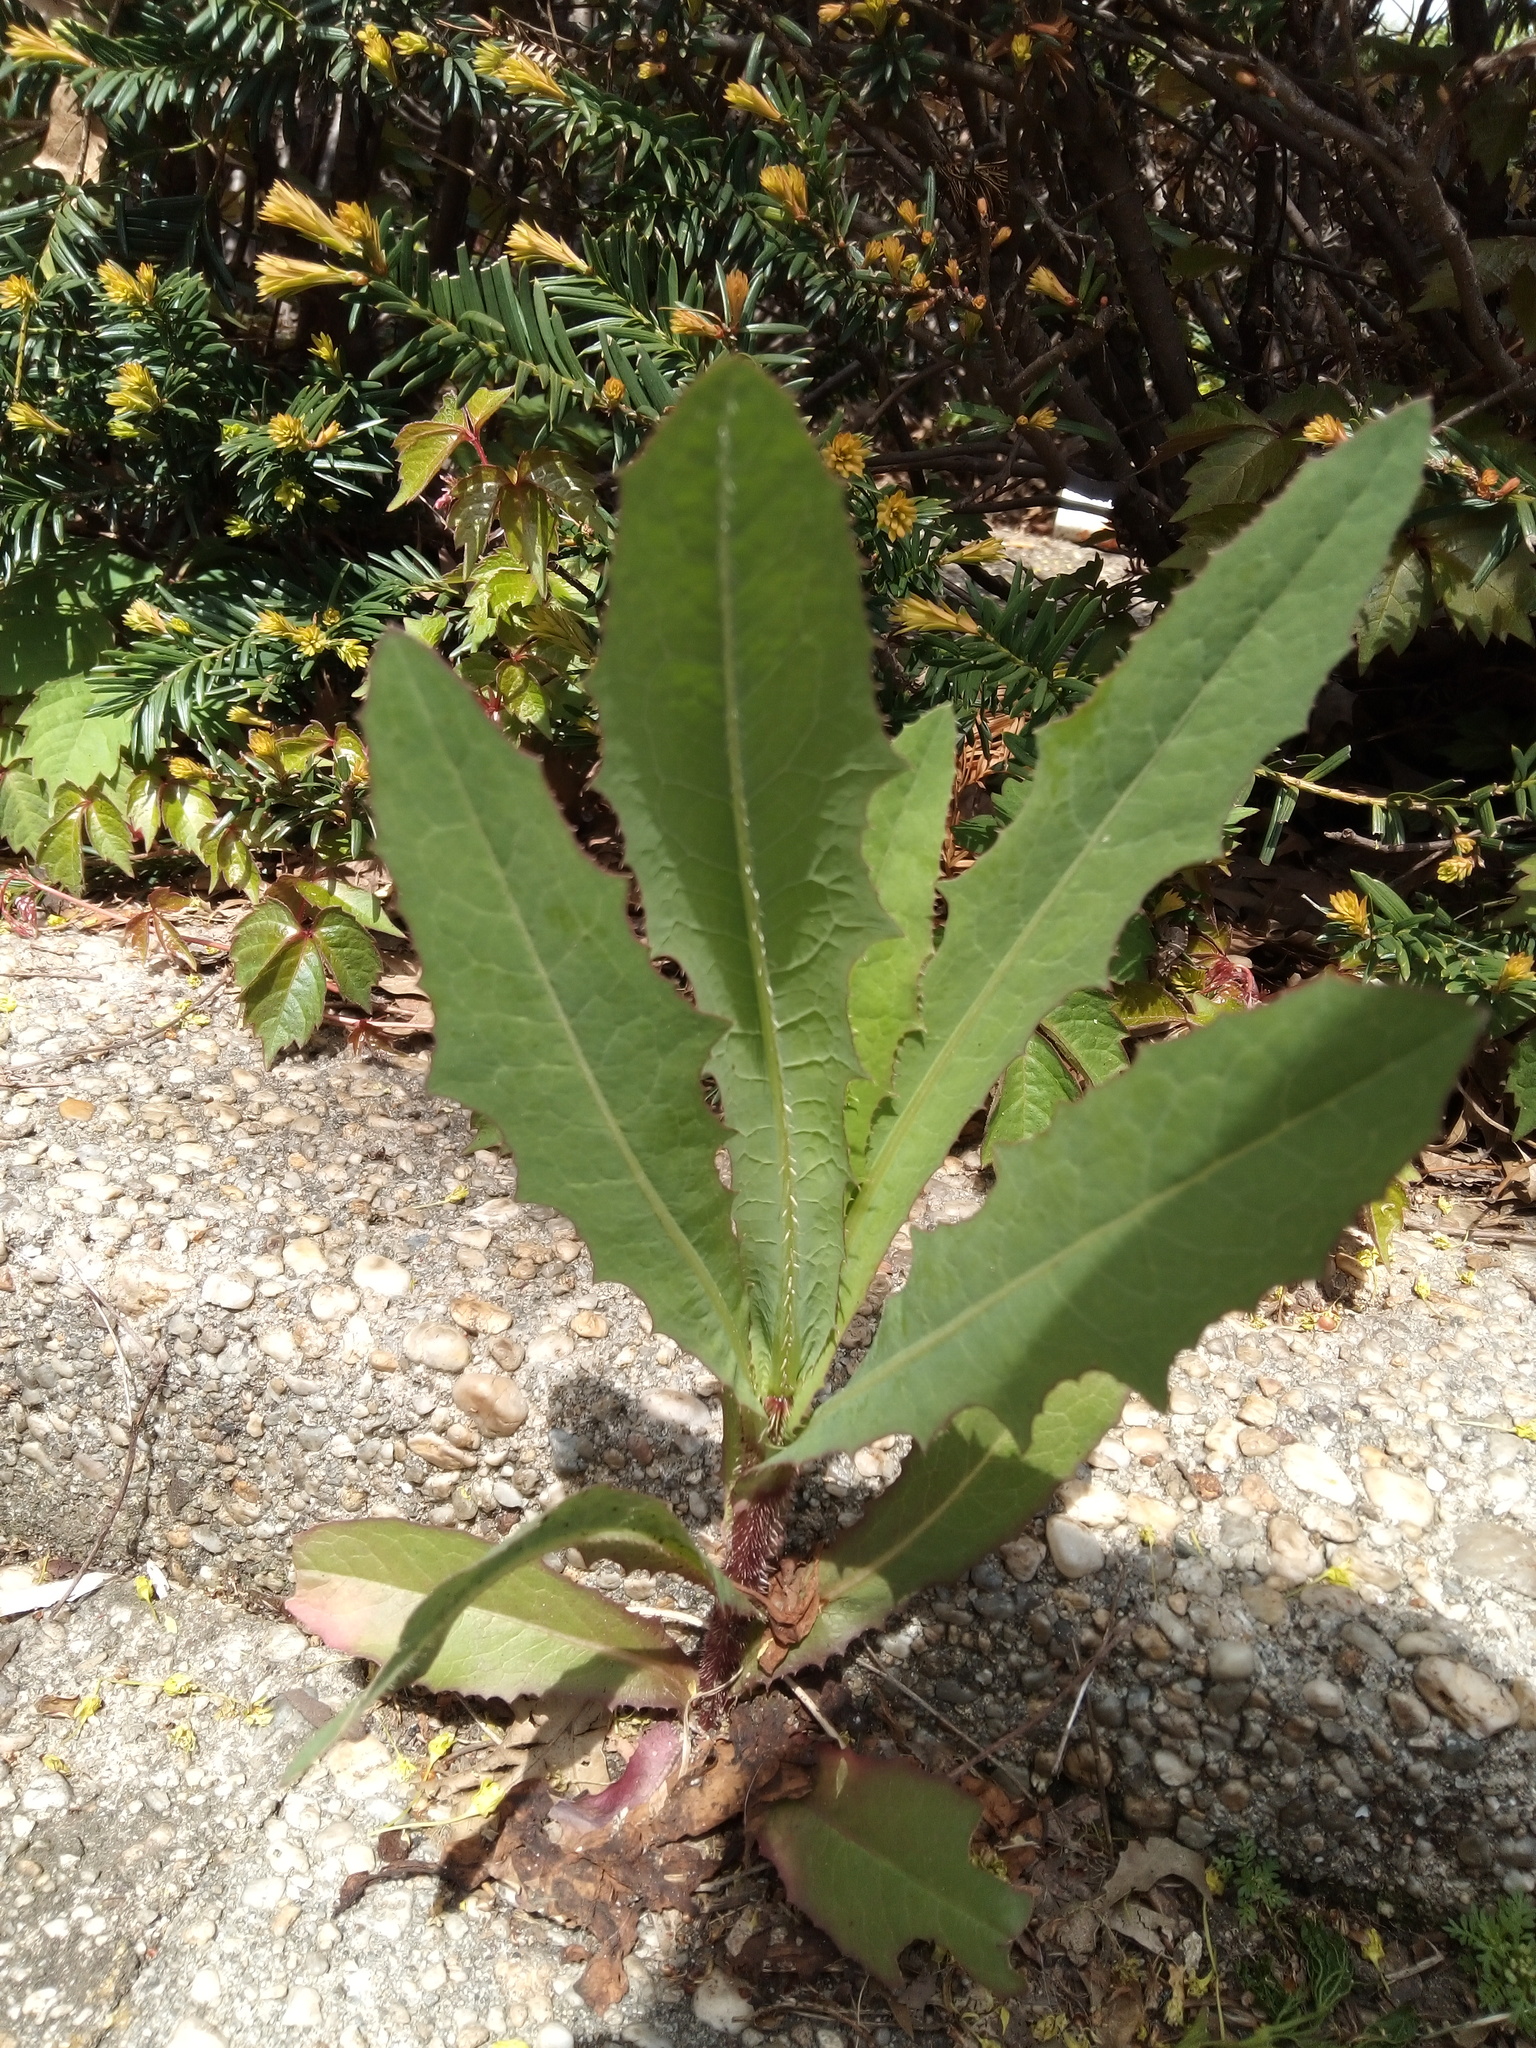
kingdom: Plantae
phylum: Tracheophyta
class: Magnoliopsida
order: Asterales
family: Asteraceae
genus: Lactuca
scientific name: Lactuca serriola
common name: Prickly lettuce
